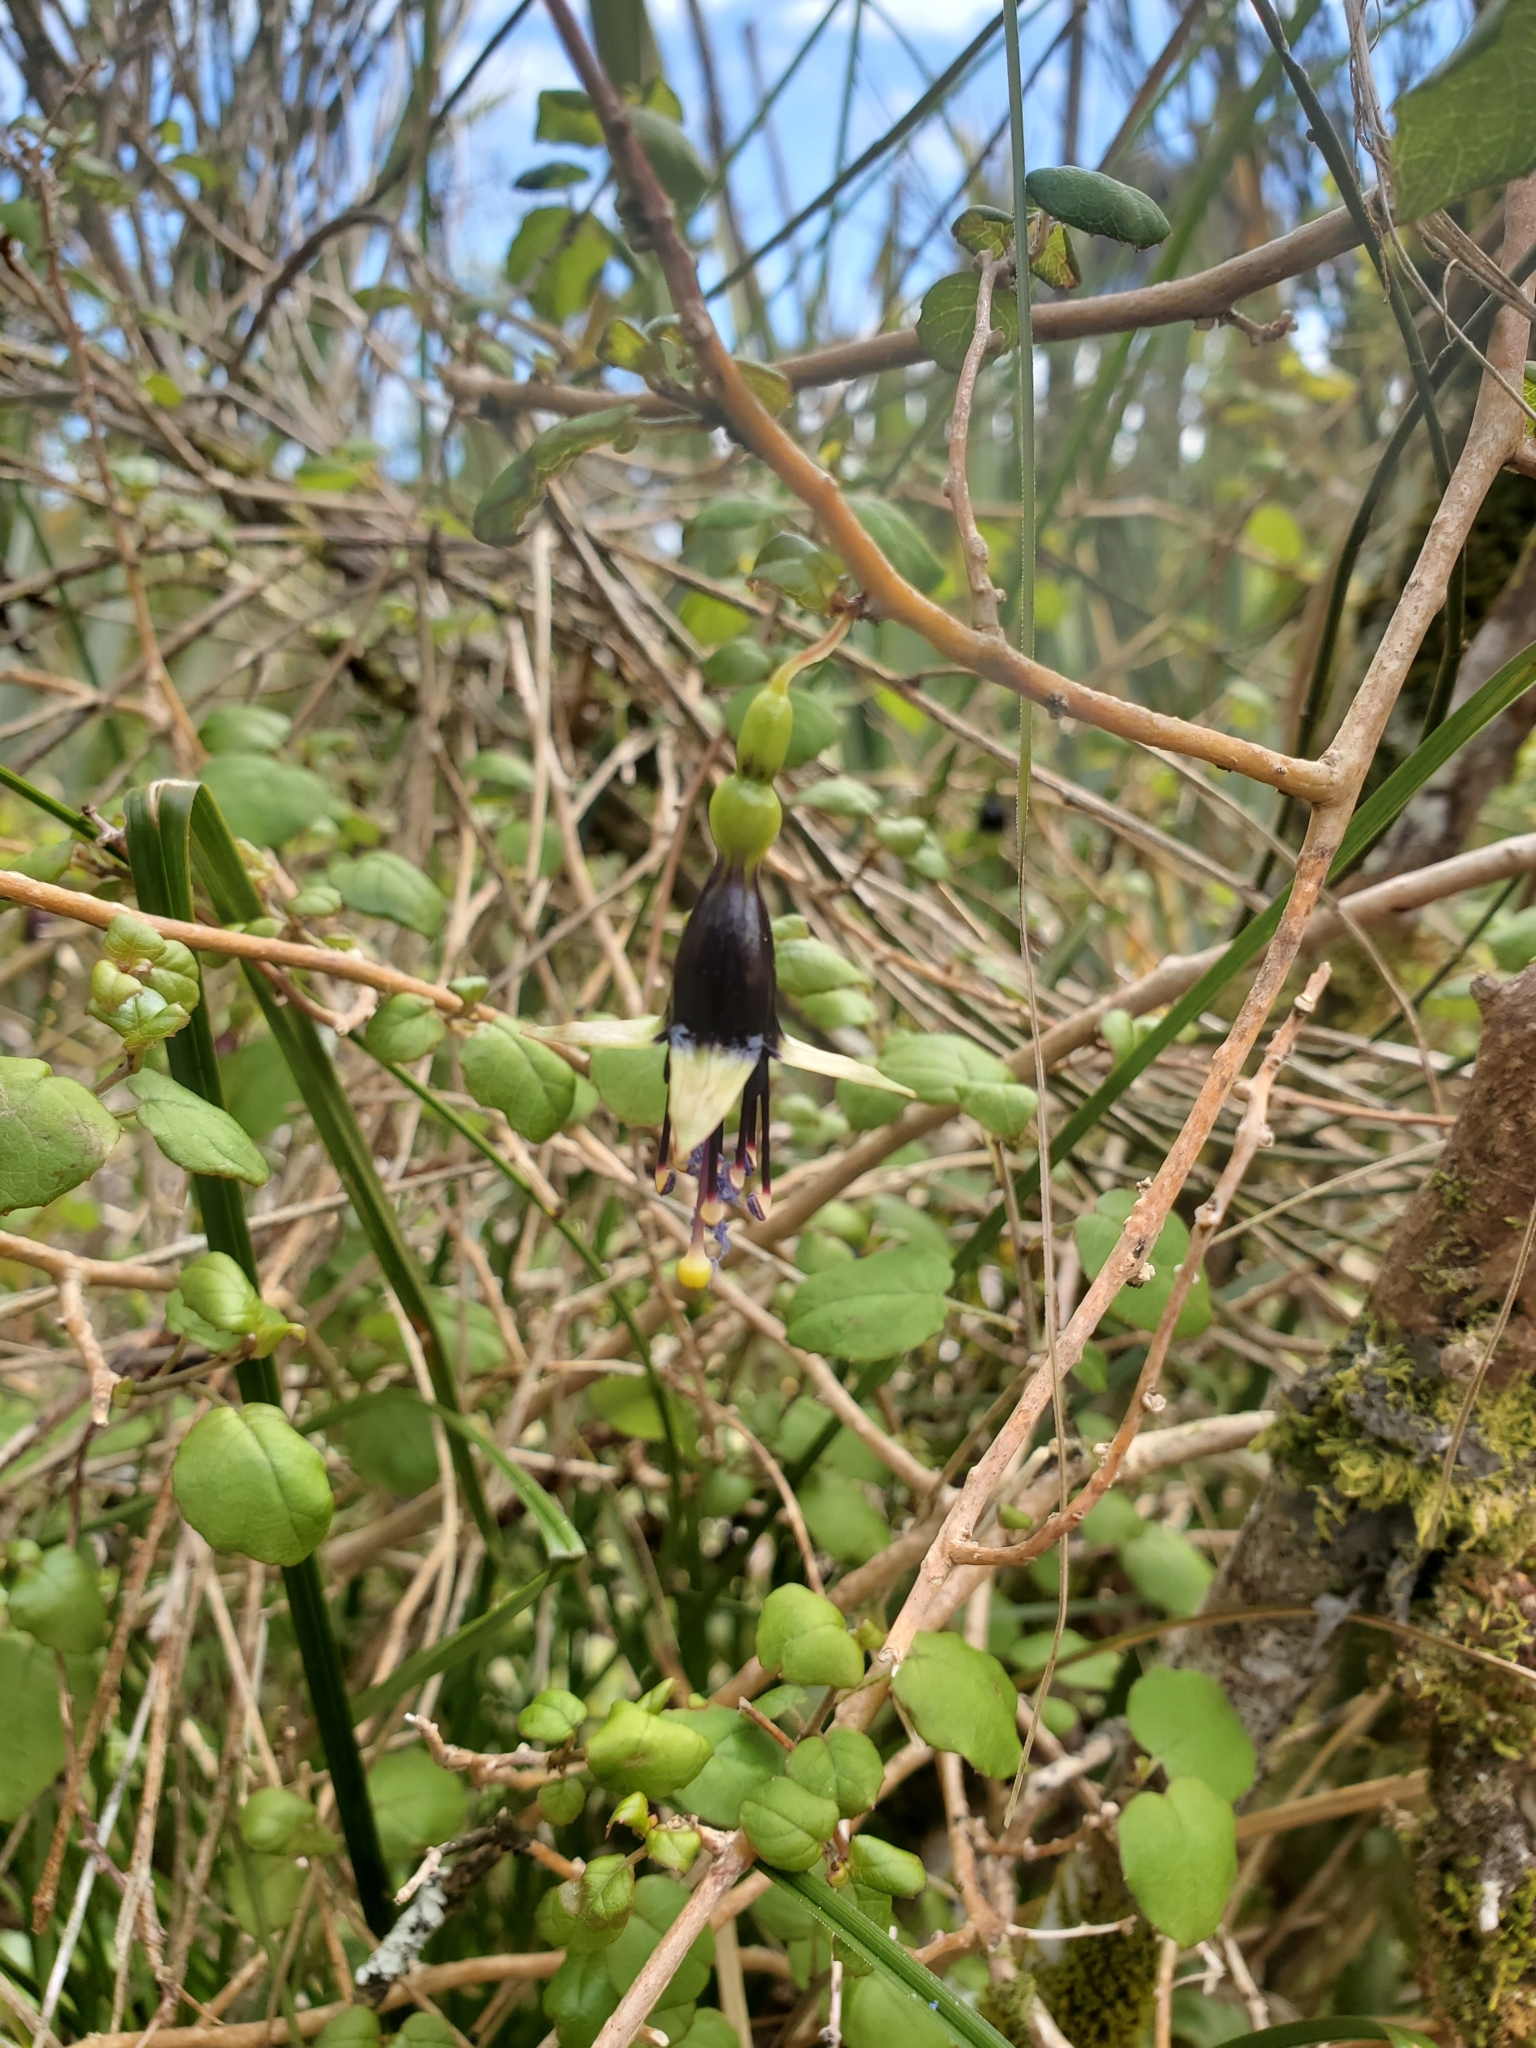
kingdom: Plantae
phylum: Tracheophyta
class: Magnoliopsida
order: Myrtales
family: Onagraceae
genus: Fuchsia
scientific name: Fuchsia perscandens
